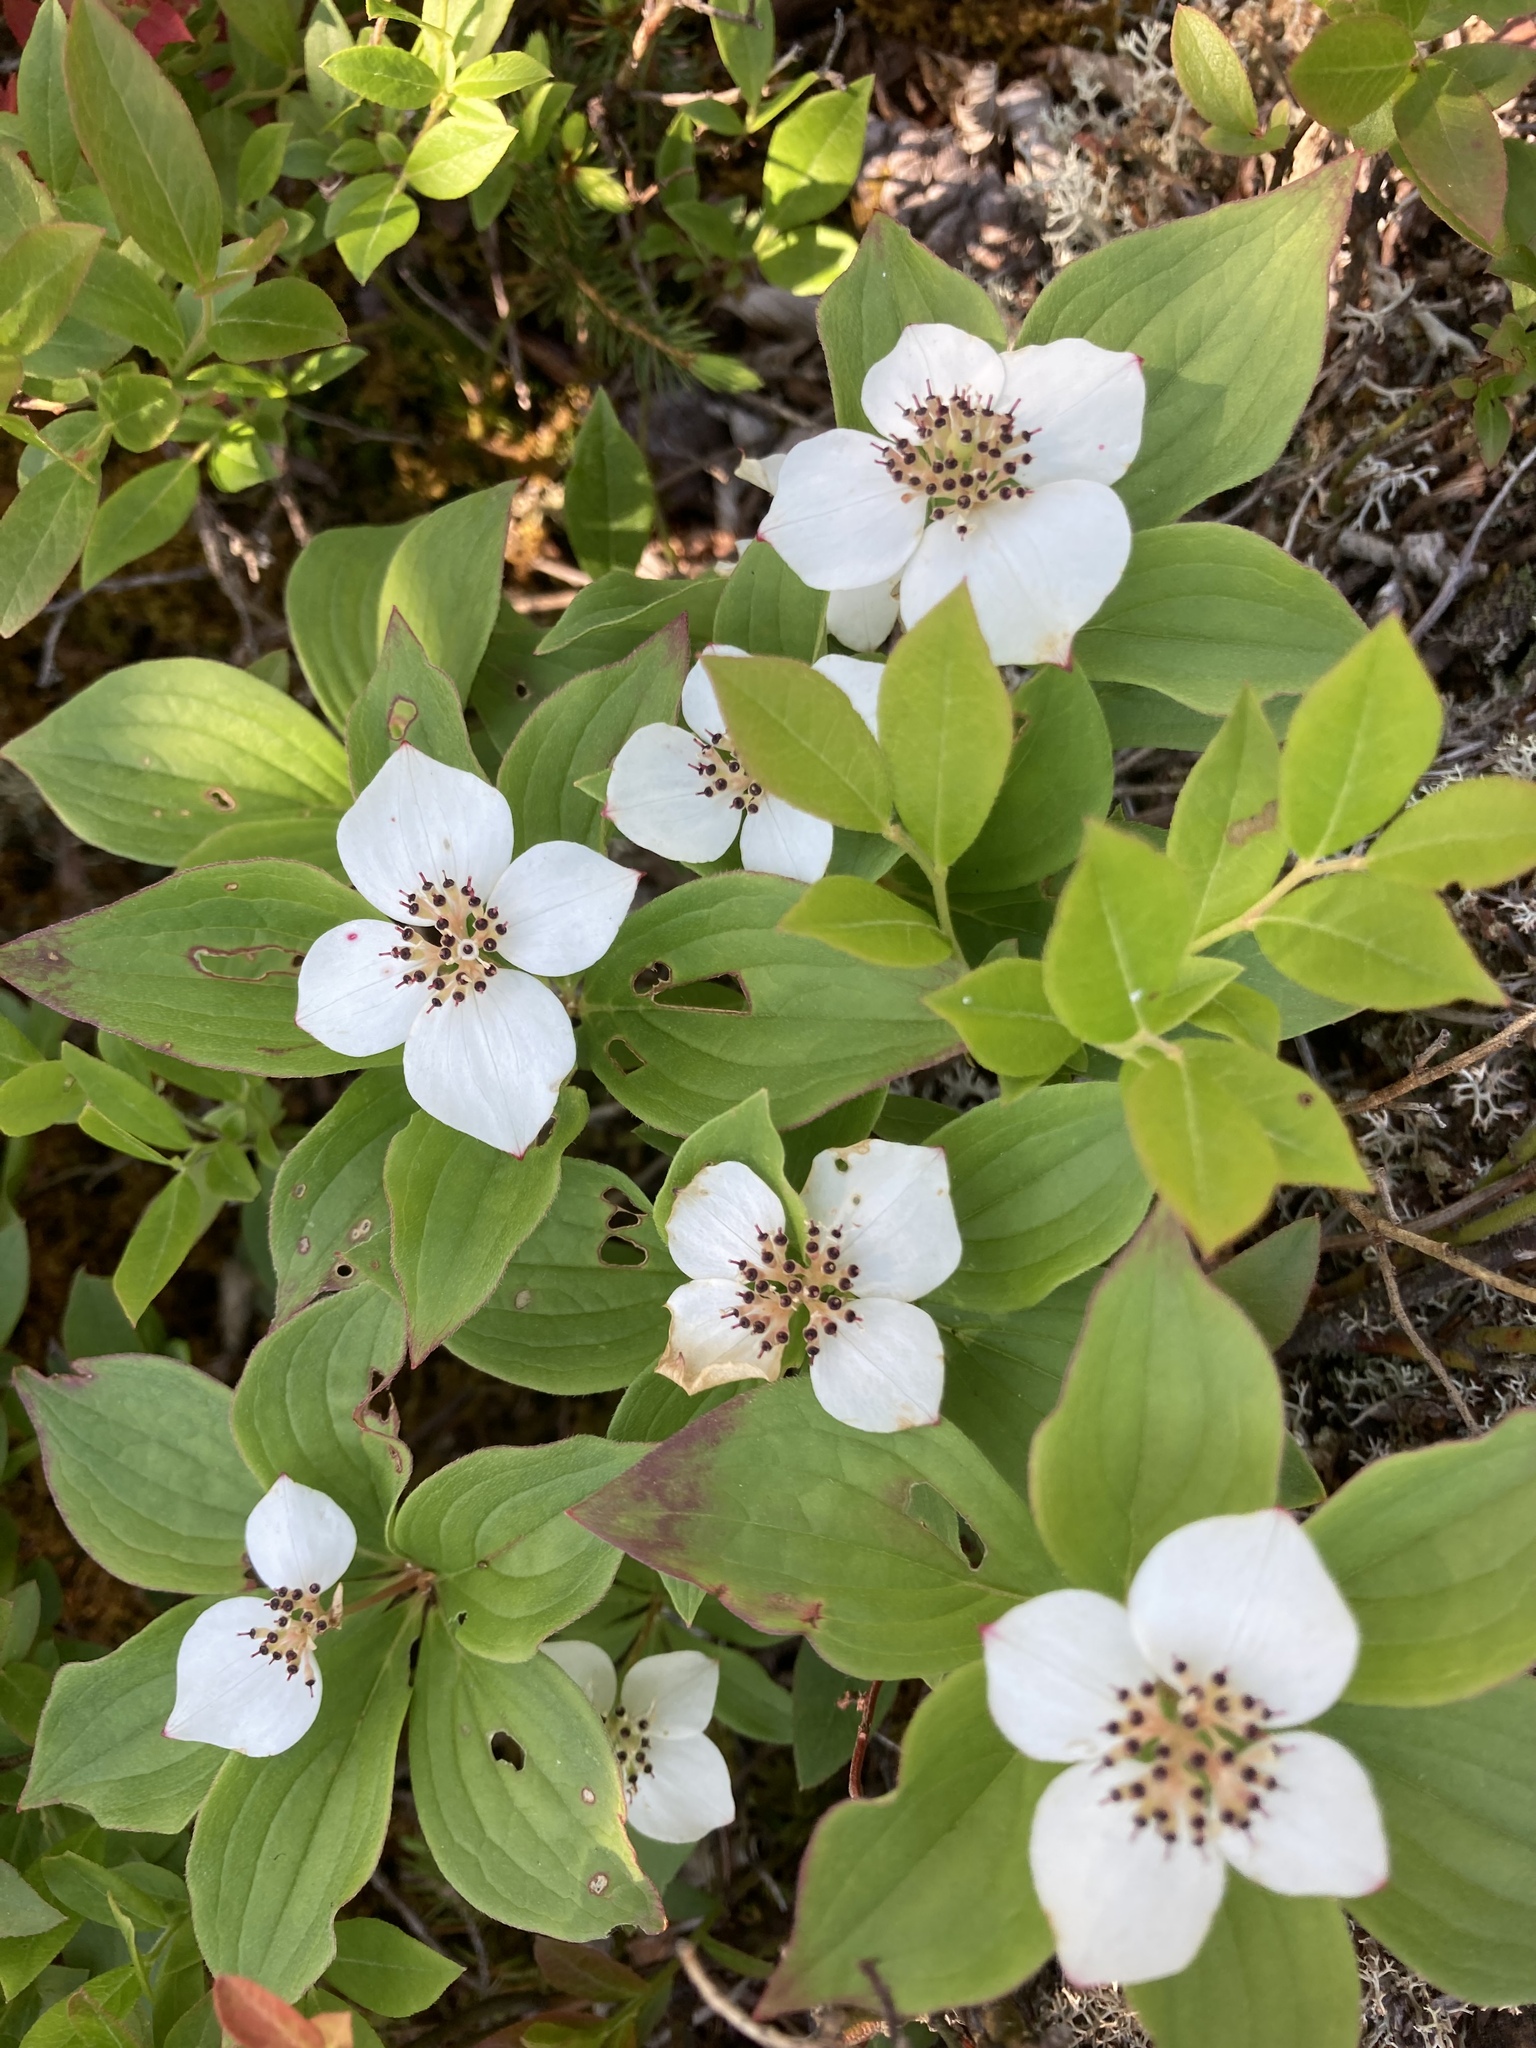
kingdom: Plantae
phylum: Tracheophyta
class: Magnoliopsida
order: Cornales
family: Cornaceae
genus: Cornus
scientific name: Cornus canadensis
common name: Creeping dogwood
